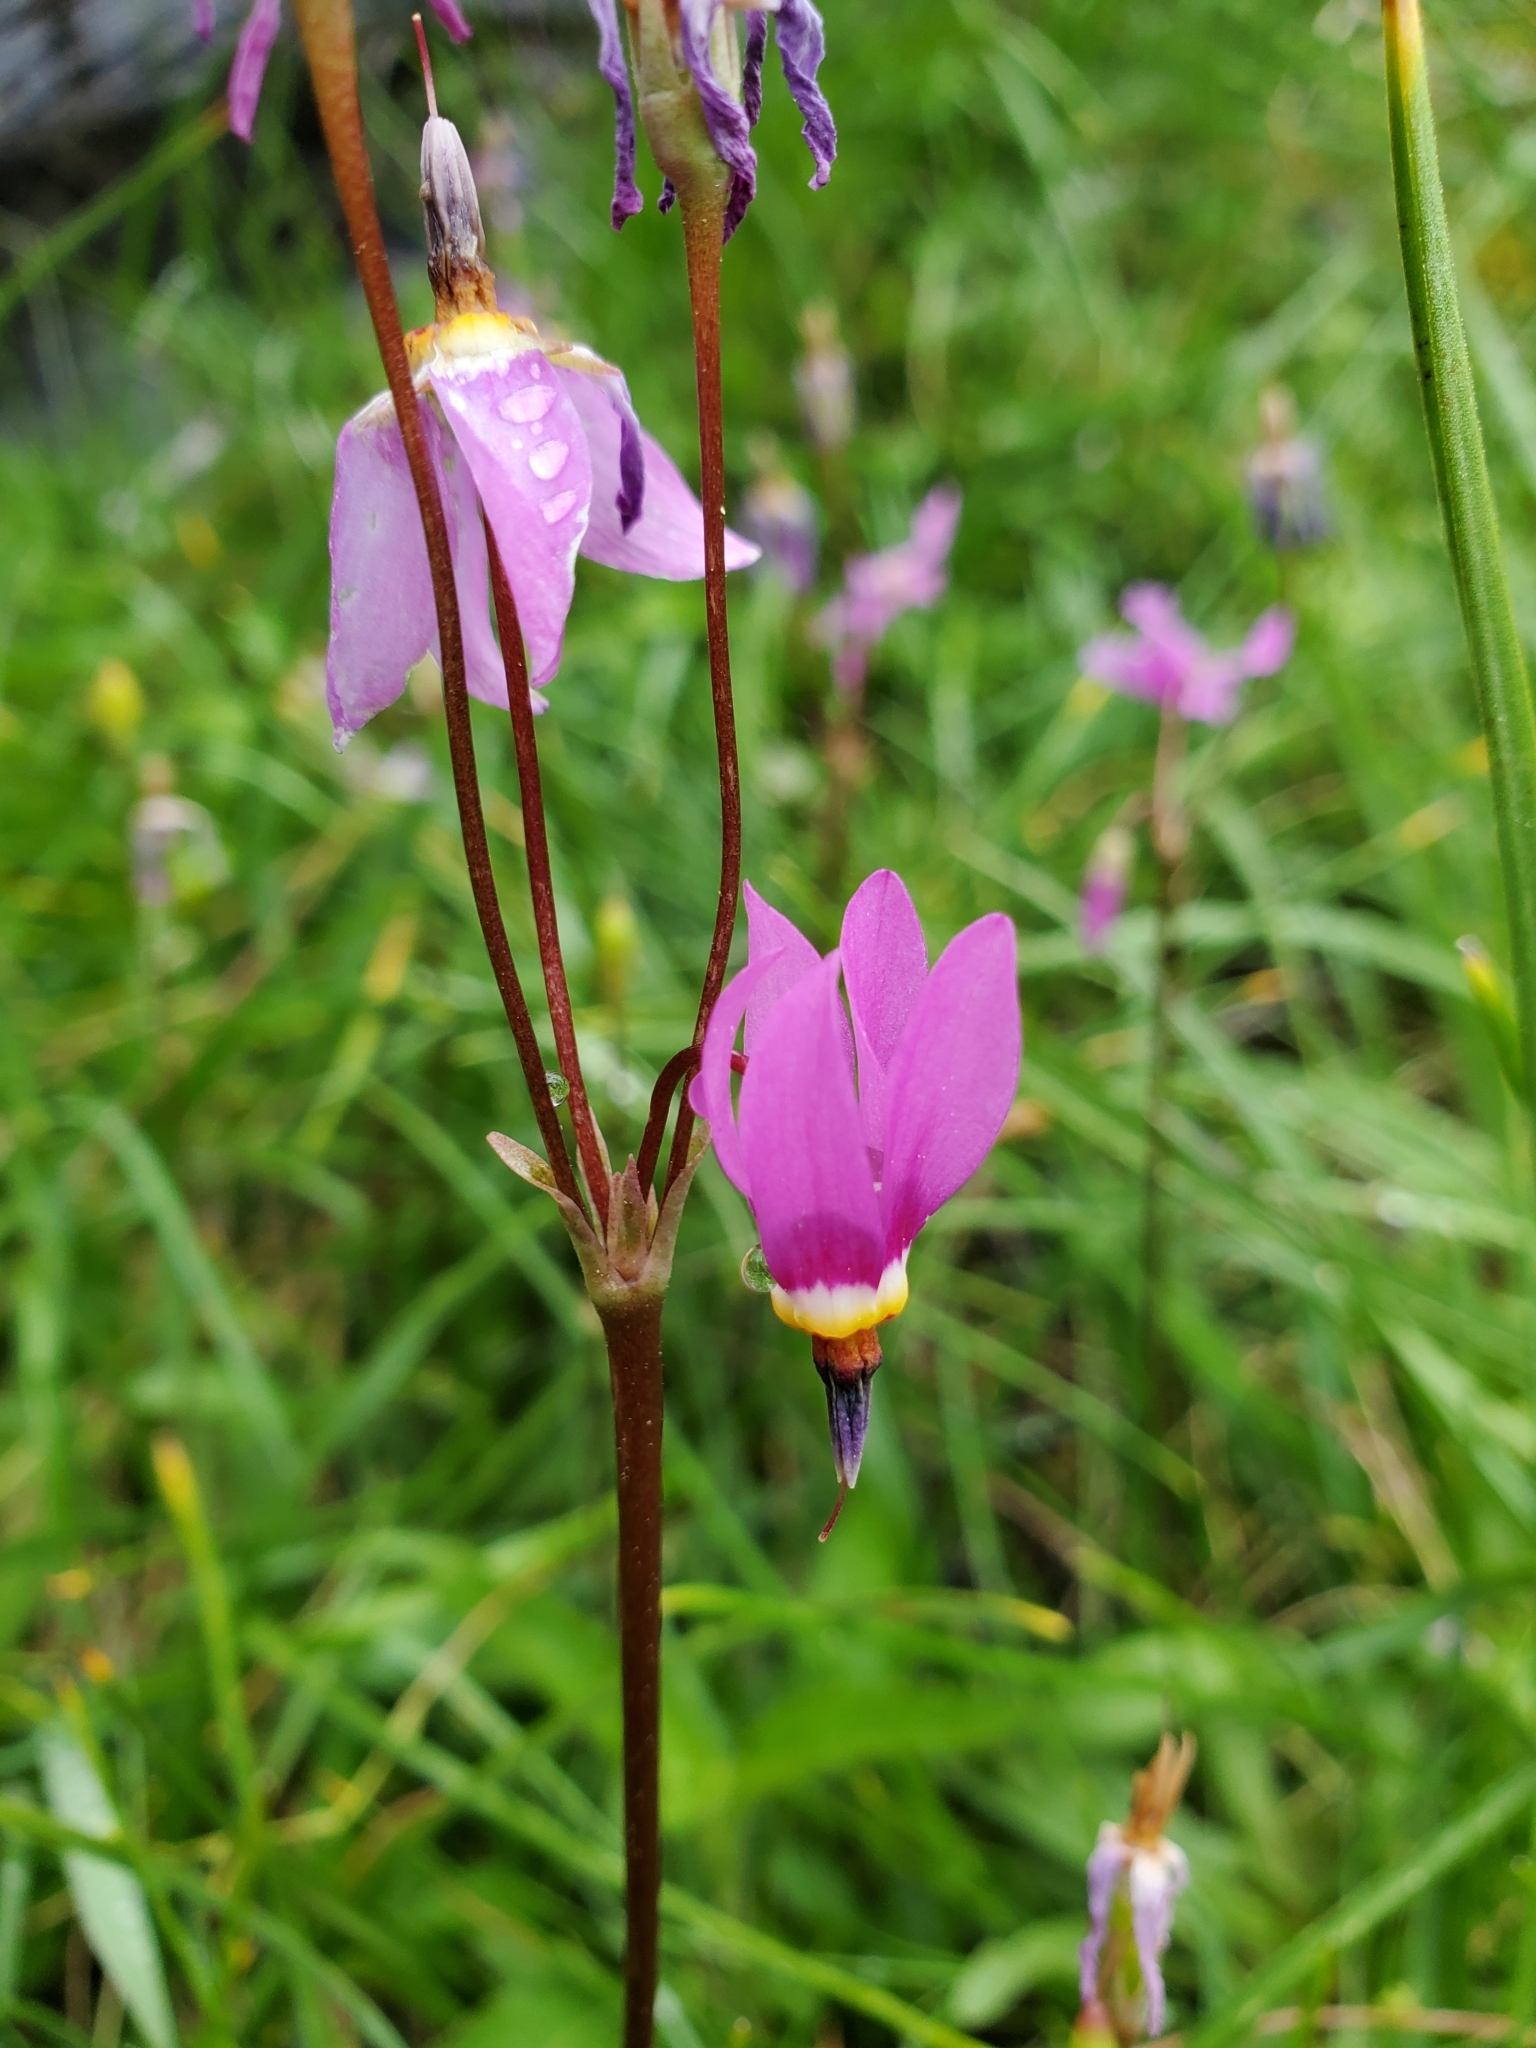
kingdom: Plantae
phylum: Tracheophyta
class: Magnoliopsida
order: Ericales
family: Primulaceae
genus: Dodecatheon
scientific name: Dodecatheon pulchellum
